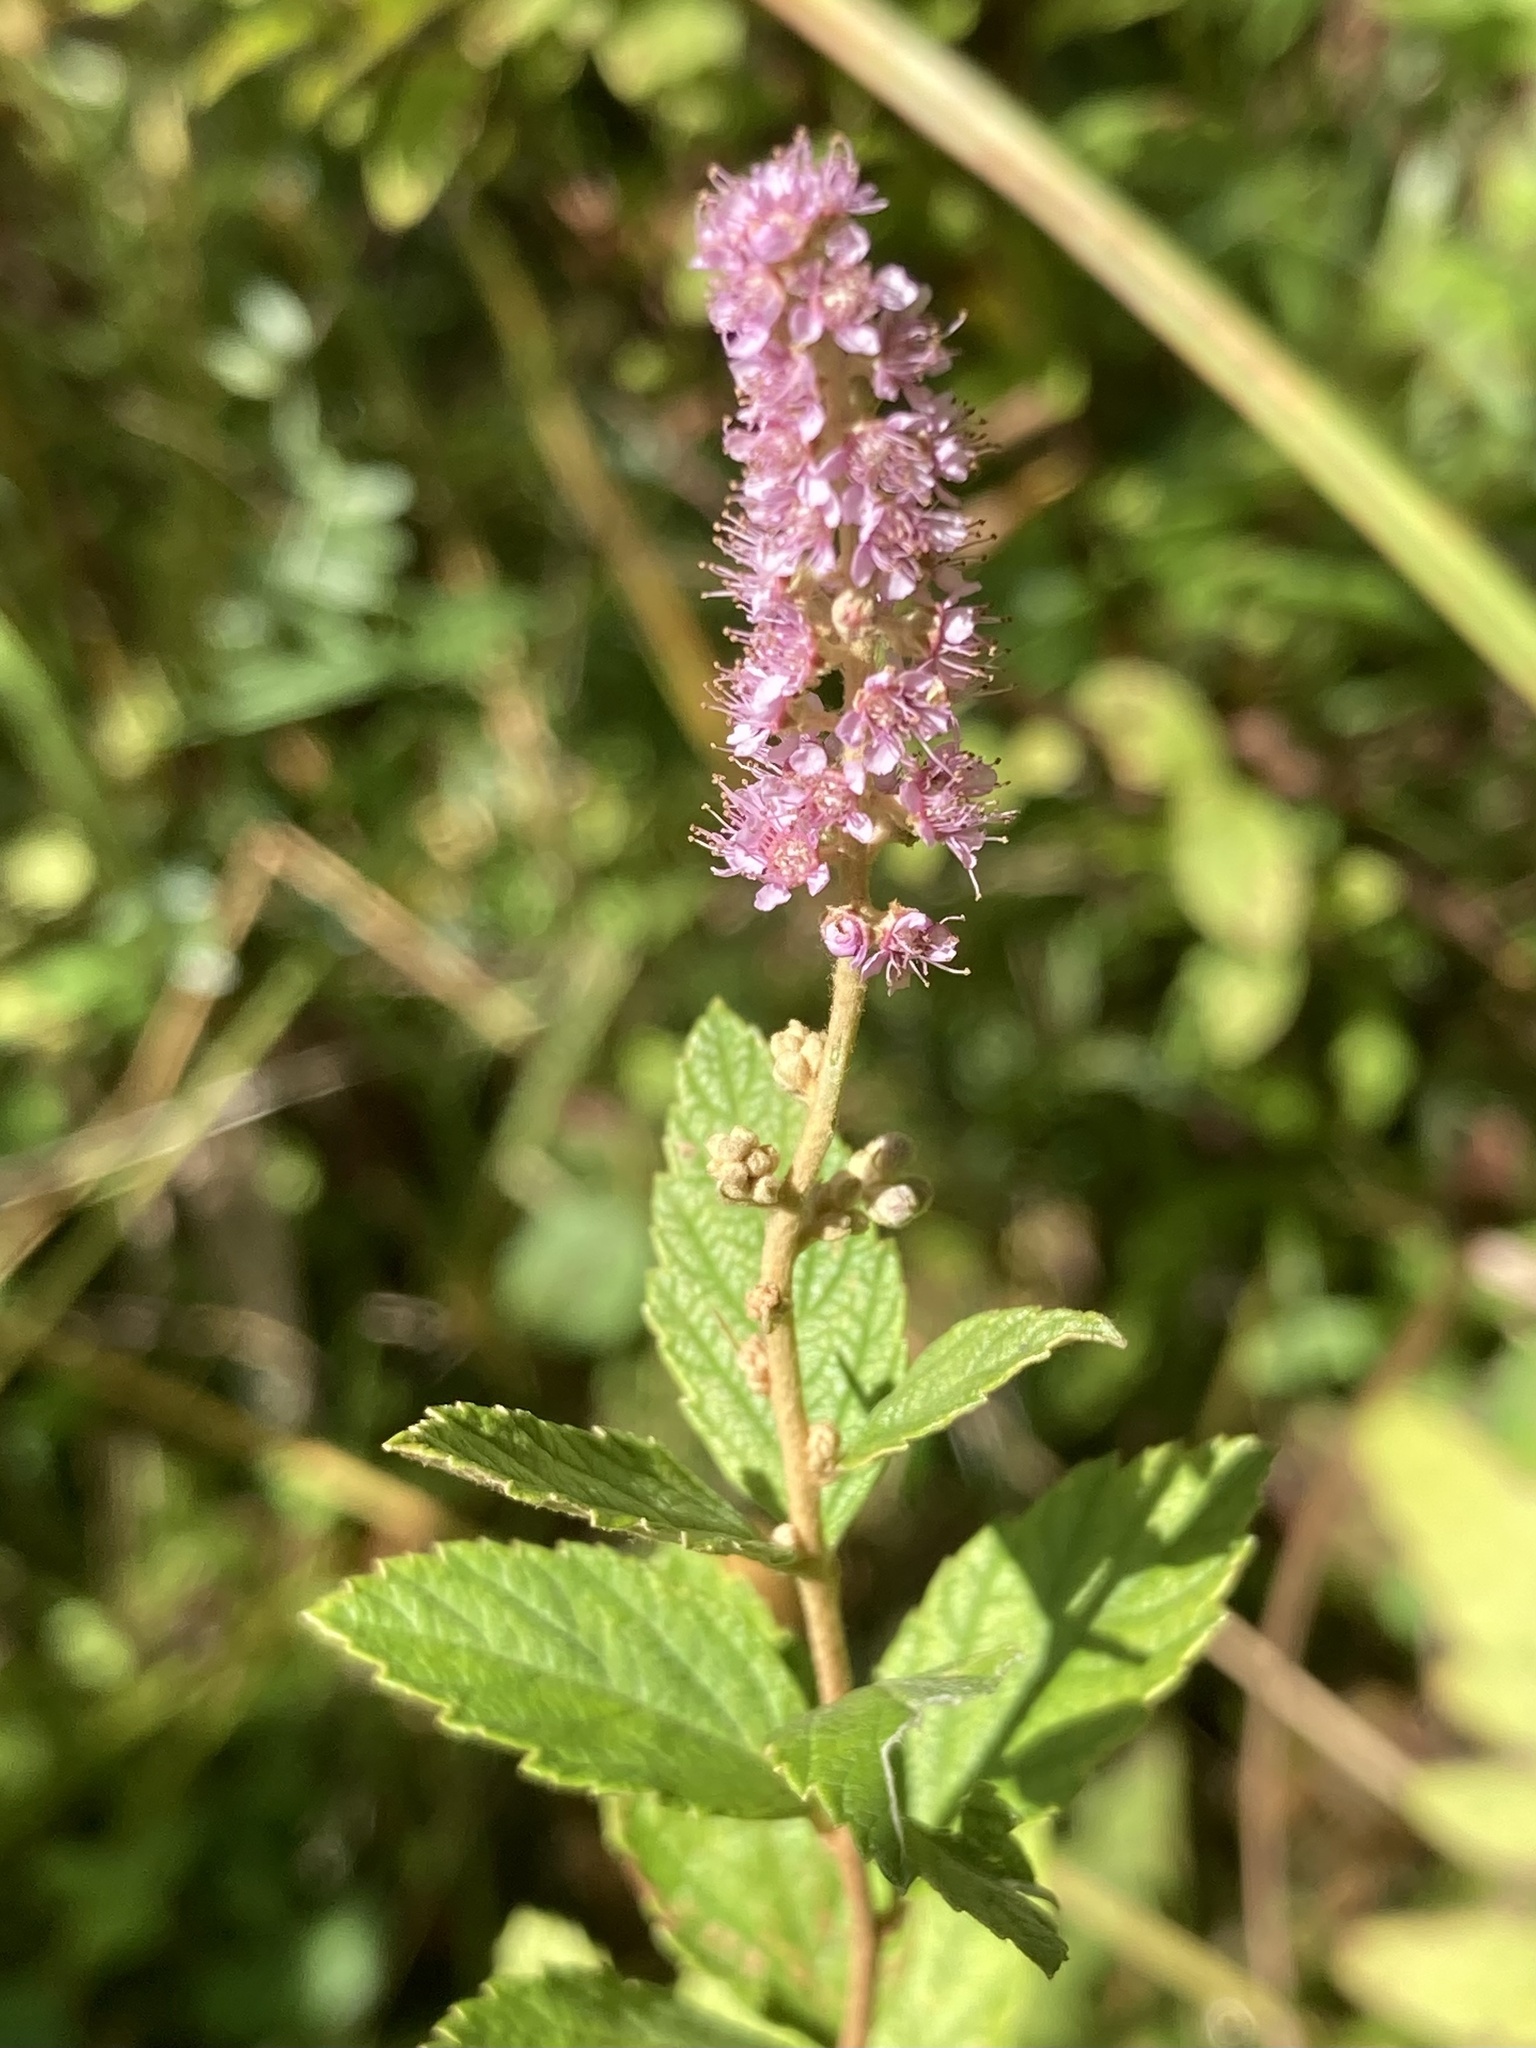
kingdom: Plantae
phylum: Tracheophyta
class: Magnoliopsida
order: Rosales
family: Rosaceae
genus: Spiraea
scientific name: Spiraea tomentosa
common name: Hardhack
